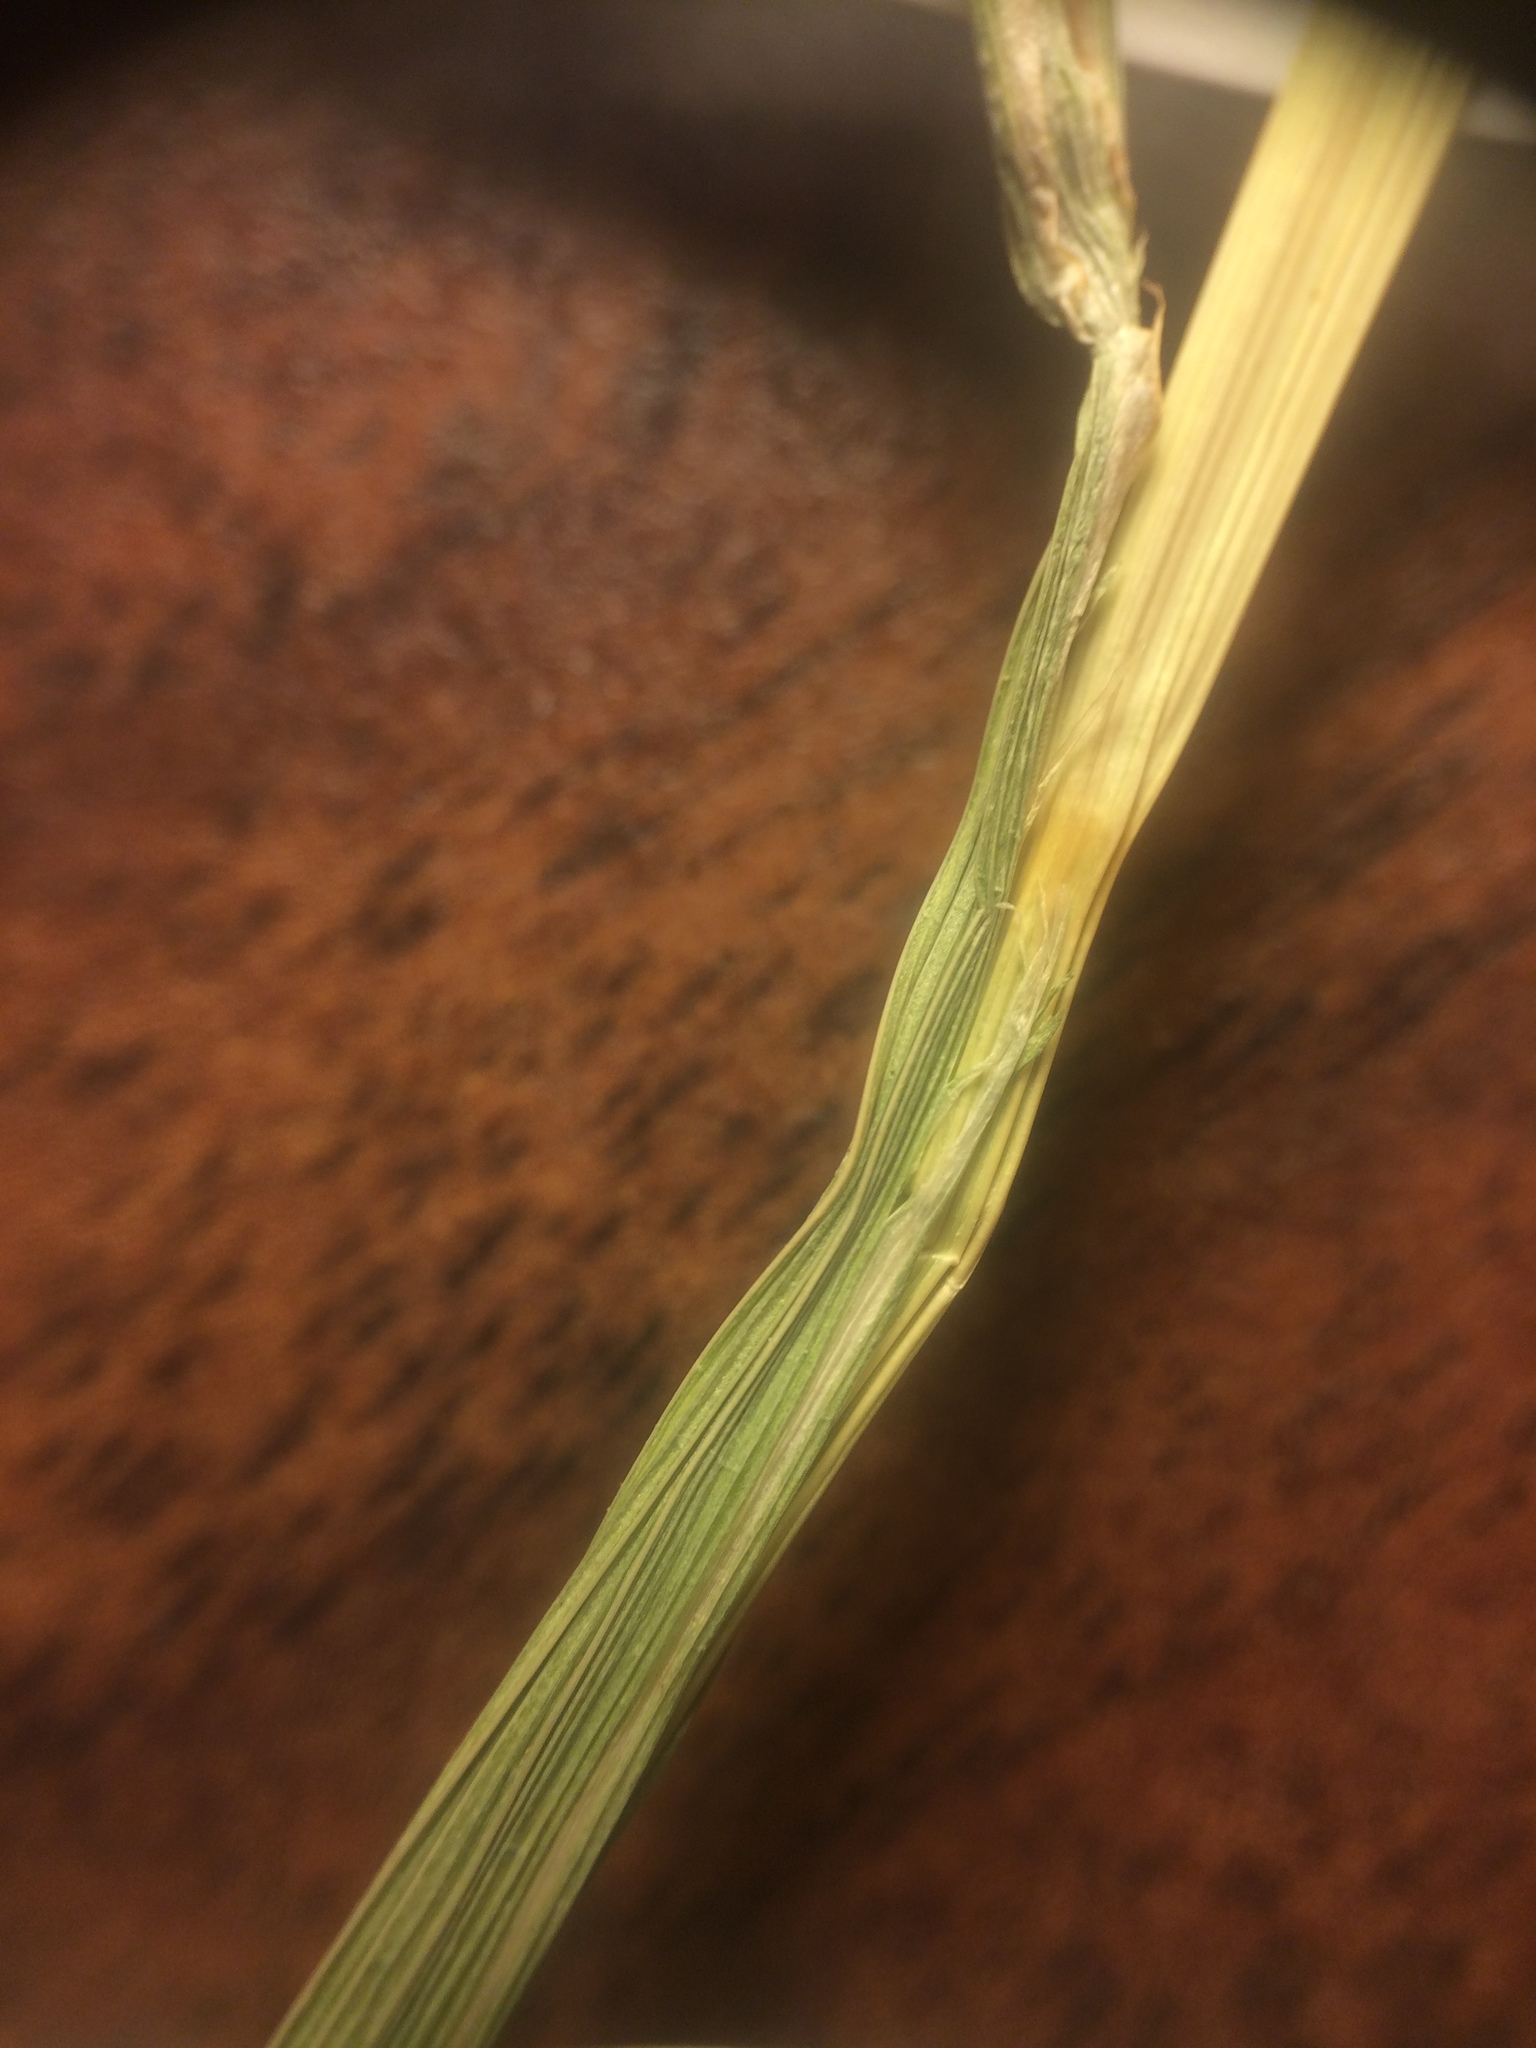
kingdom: Plantae
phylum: Tracheophyta
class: Liliopsida
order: Poales
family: Cyperaceae
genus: Carex
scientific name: Carex bebbii
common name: Bebb's sedge
